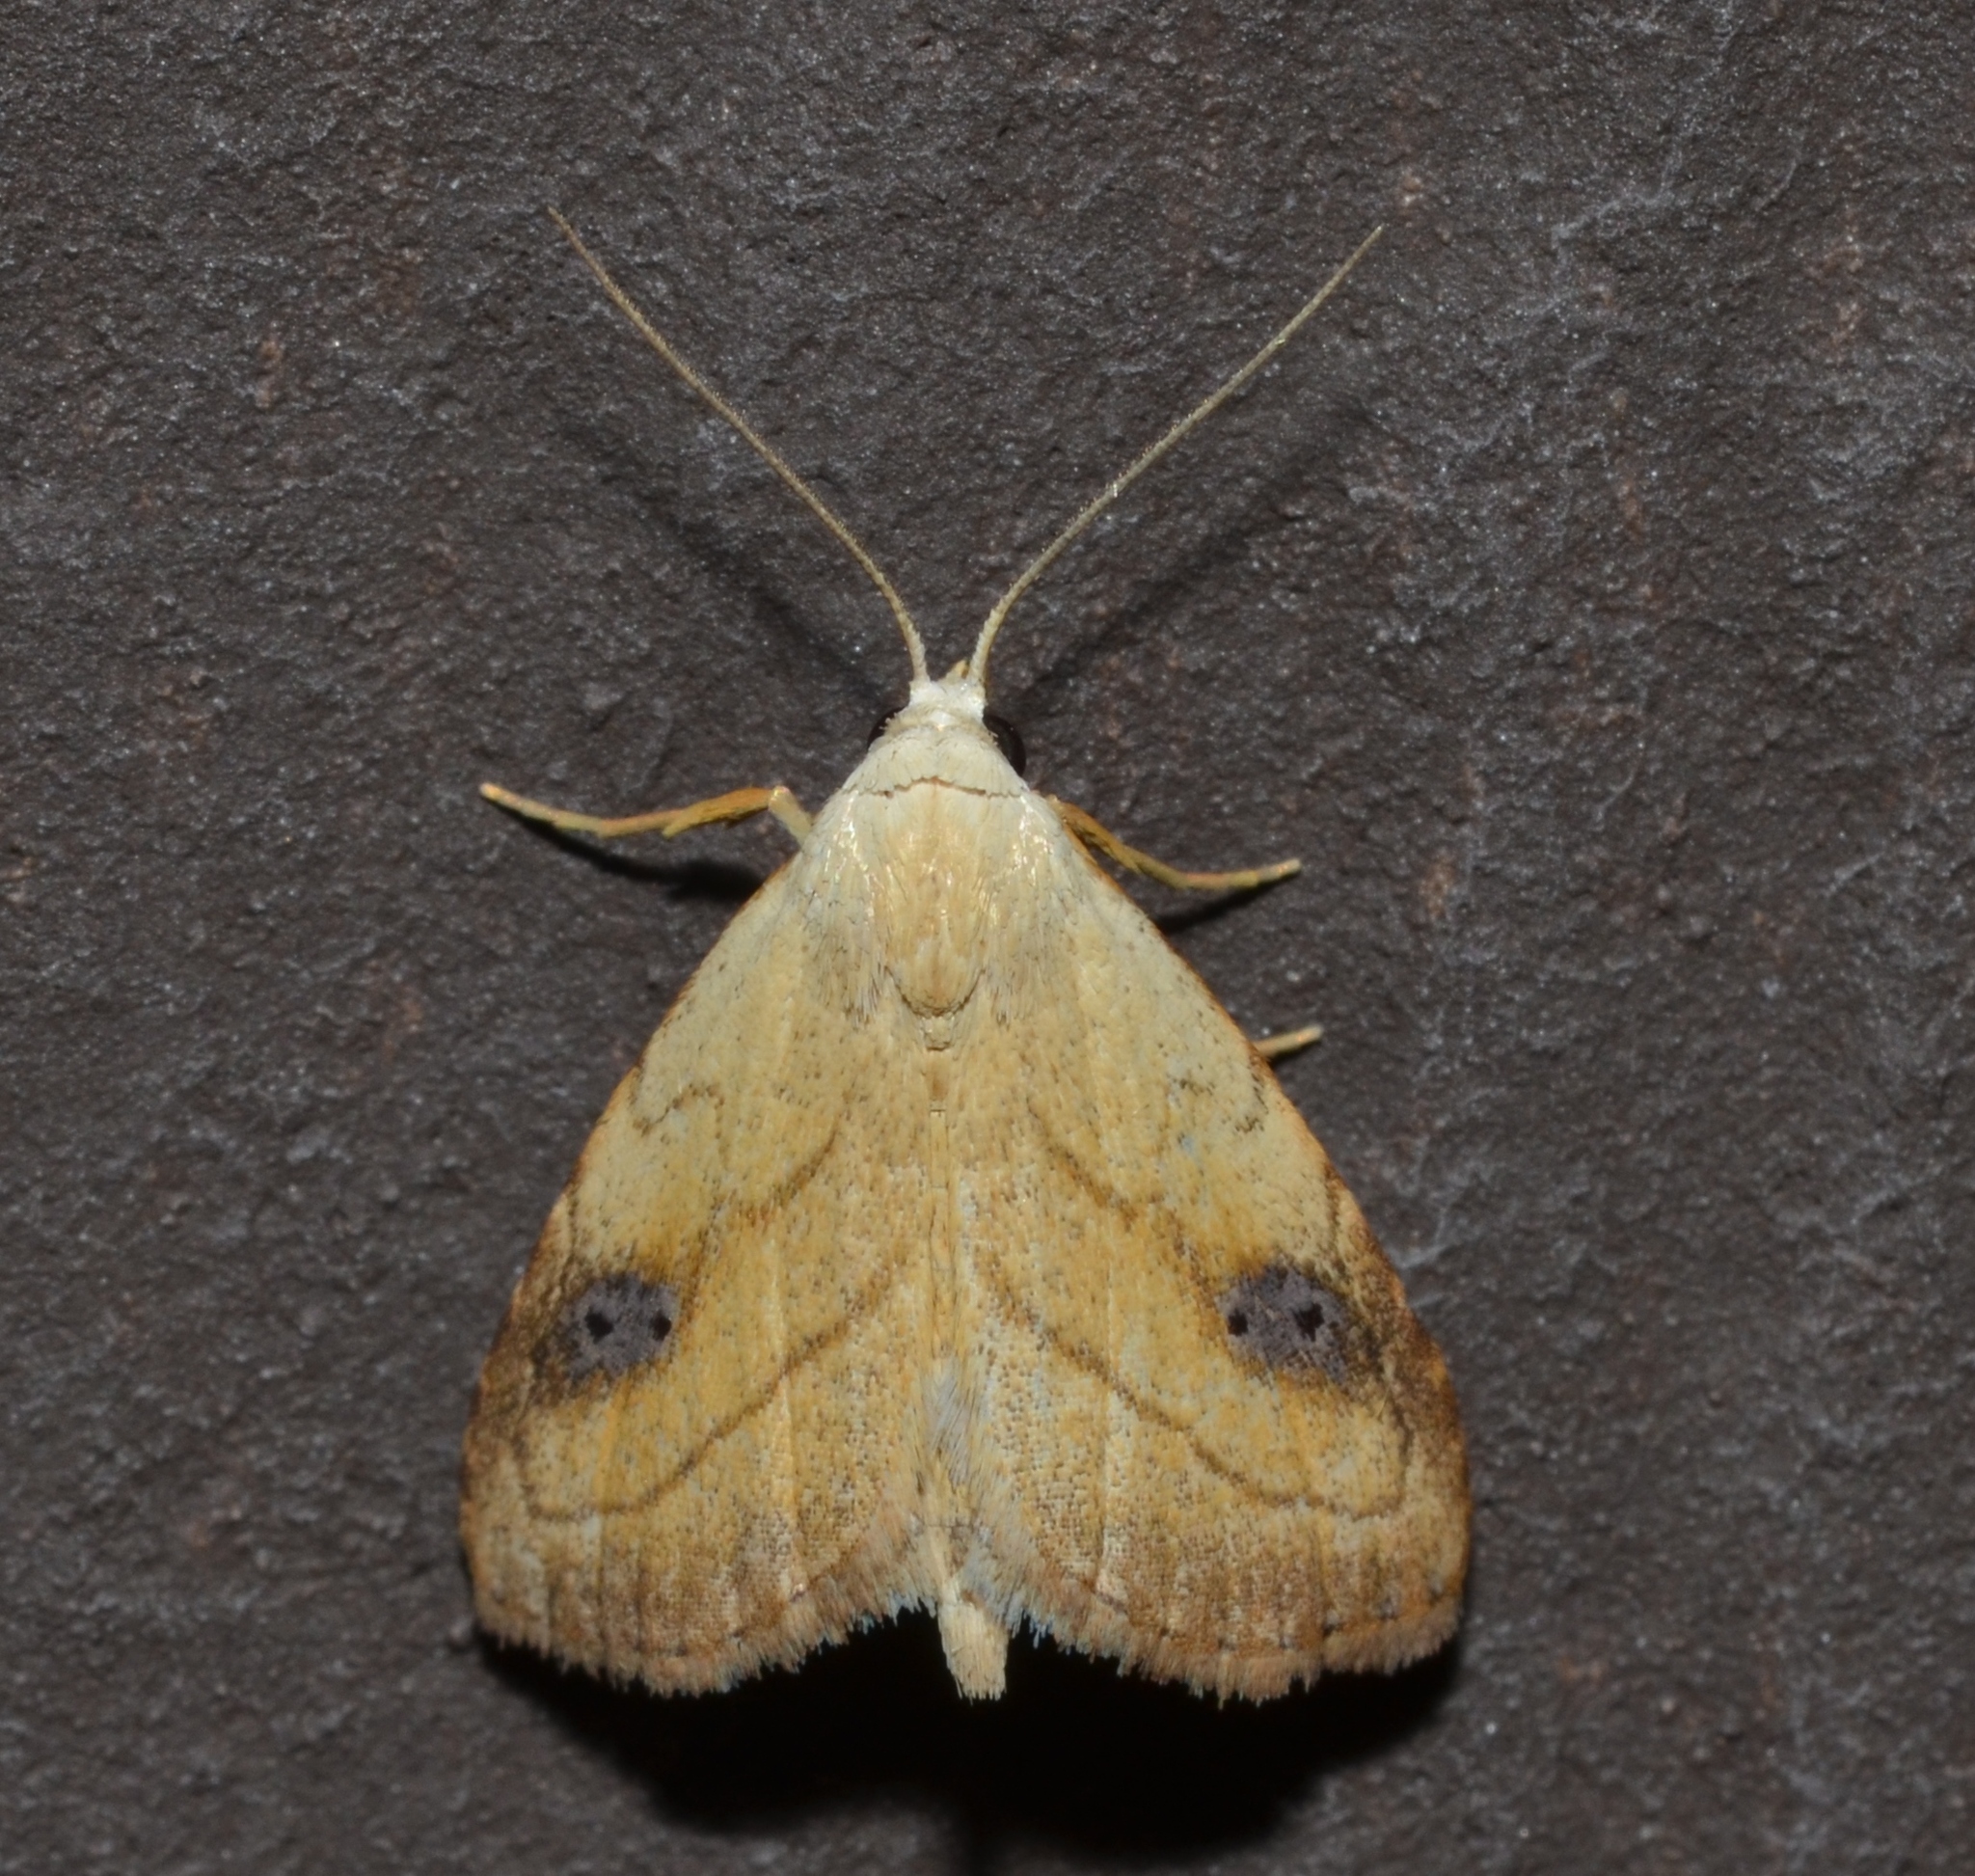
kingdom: Animalia
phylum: Arthropoda
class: Insecta
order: Lepidoptera
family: Erebidae
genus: Rivula
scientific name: Rivula propinqualis
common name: Spotted grass moth
